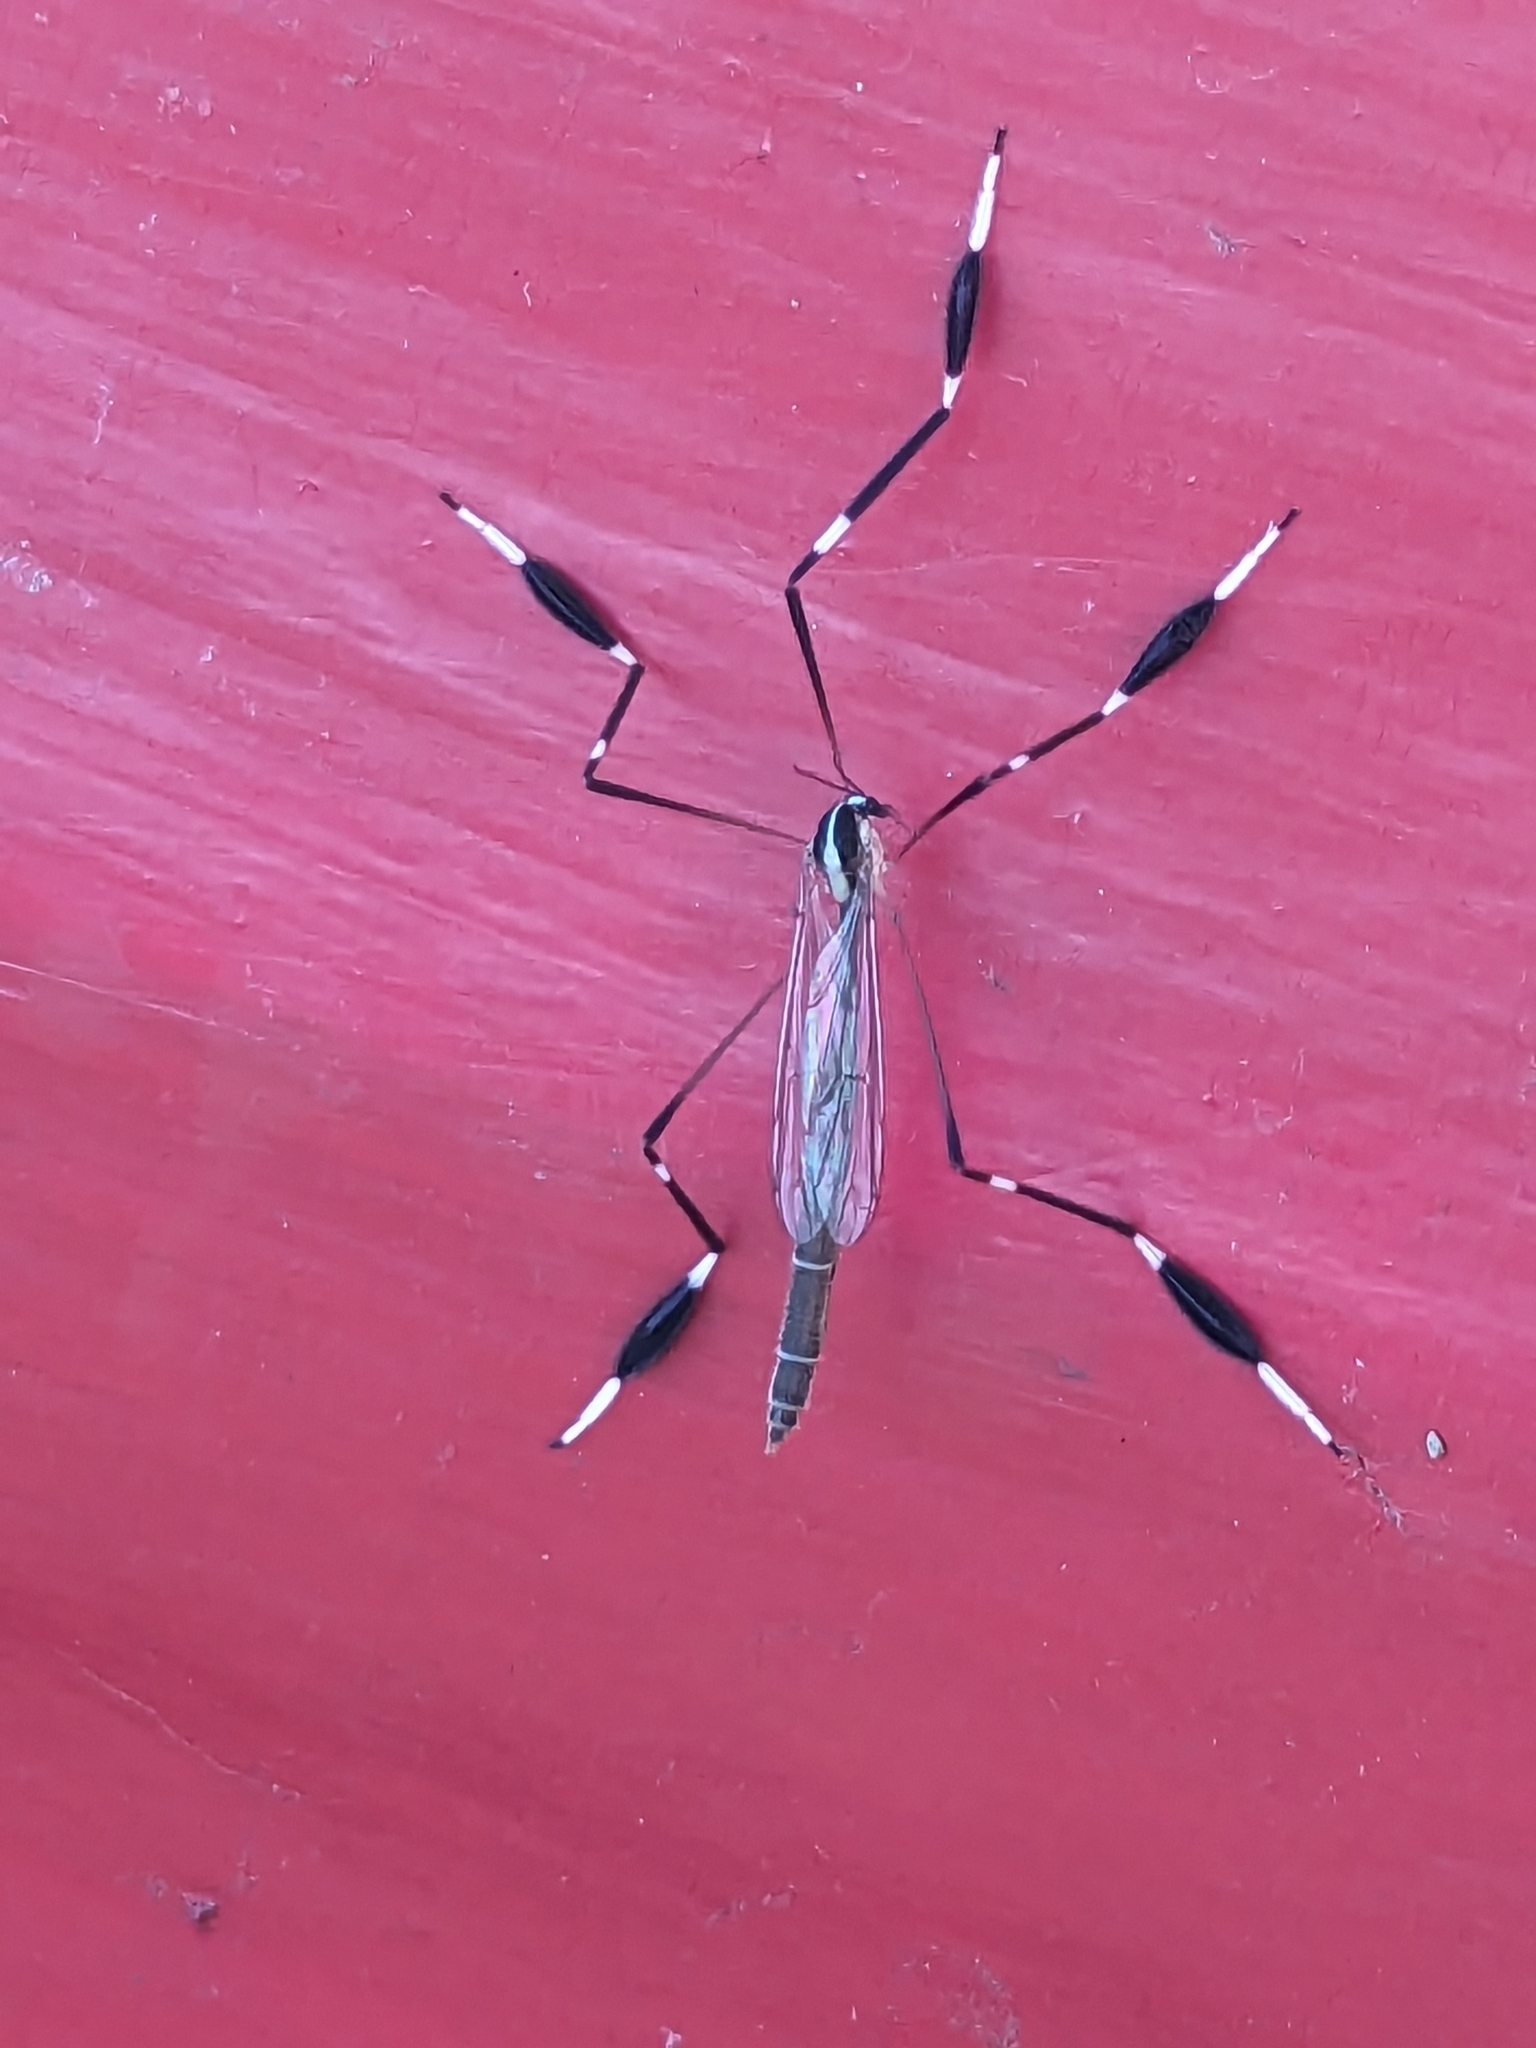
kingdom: Animalia
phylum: Arthropoda
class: Insecta
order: Diptera
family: Ptychopteridae
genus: Bittacomorpha
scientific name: Bittacomorpha clavipes
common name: Eastern phantom crane fly
